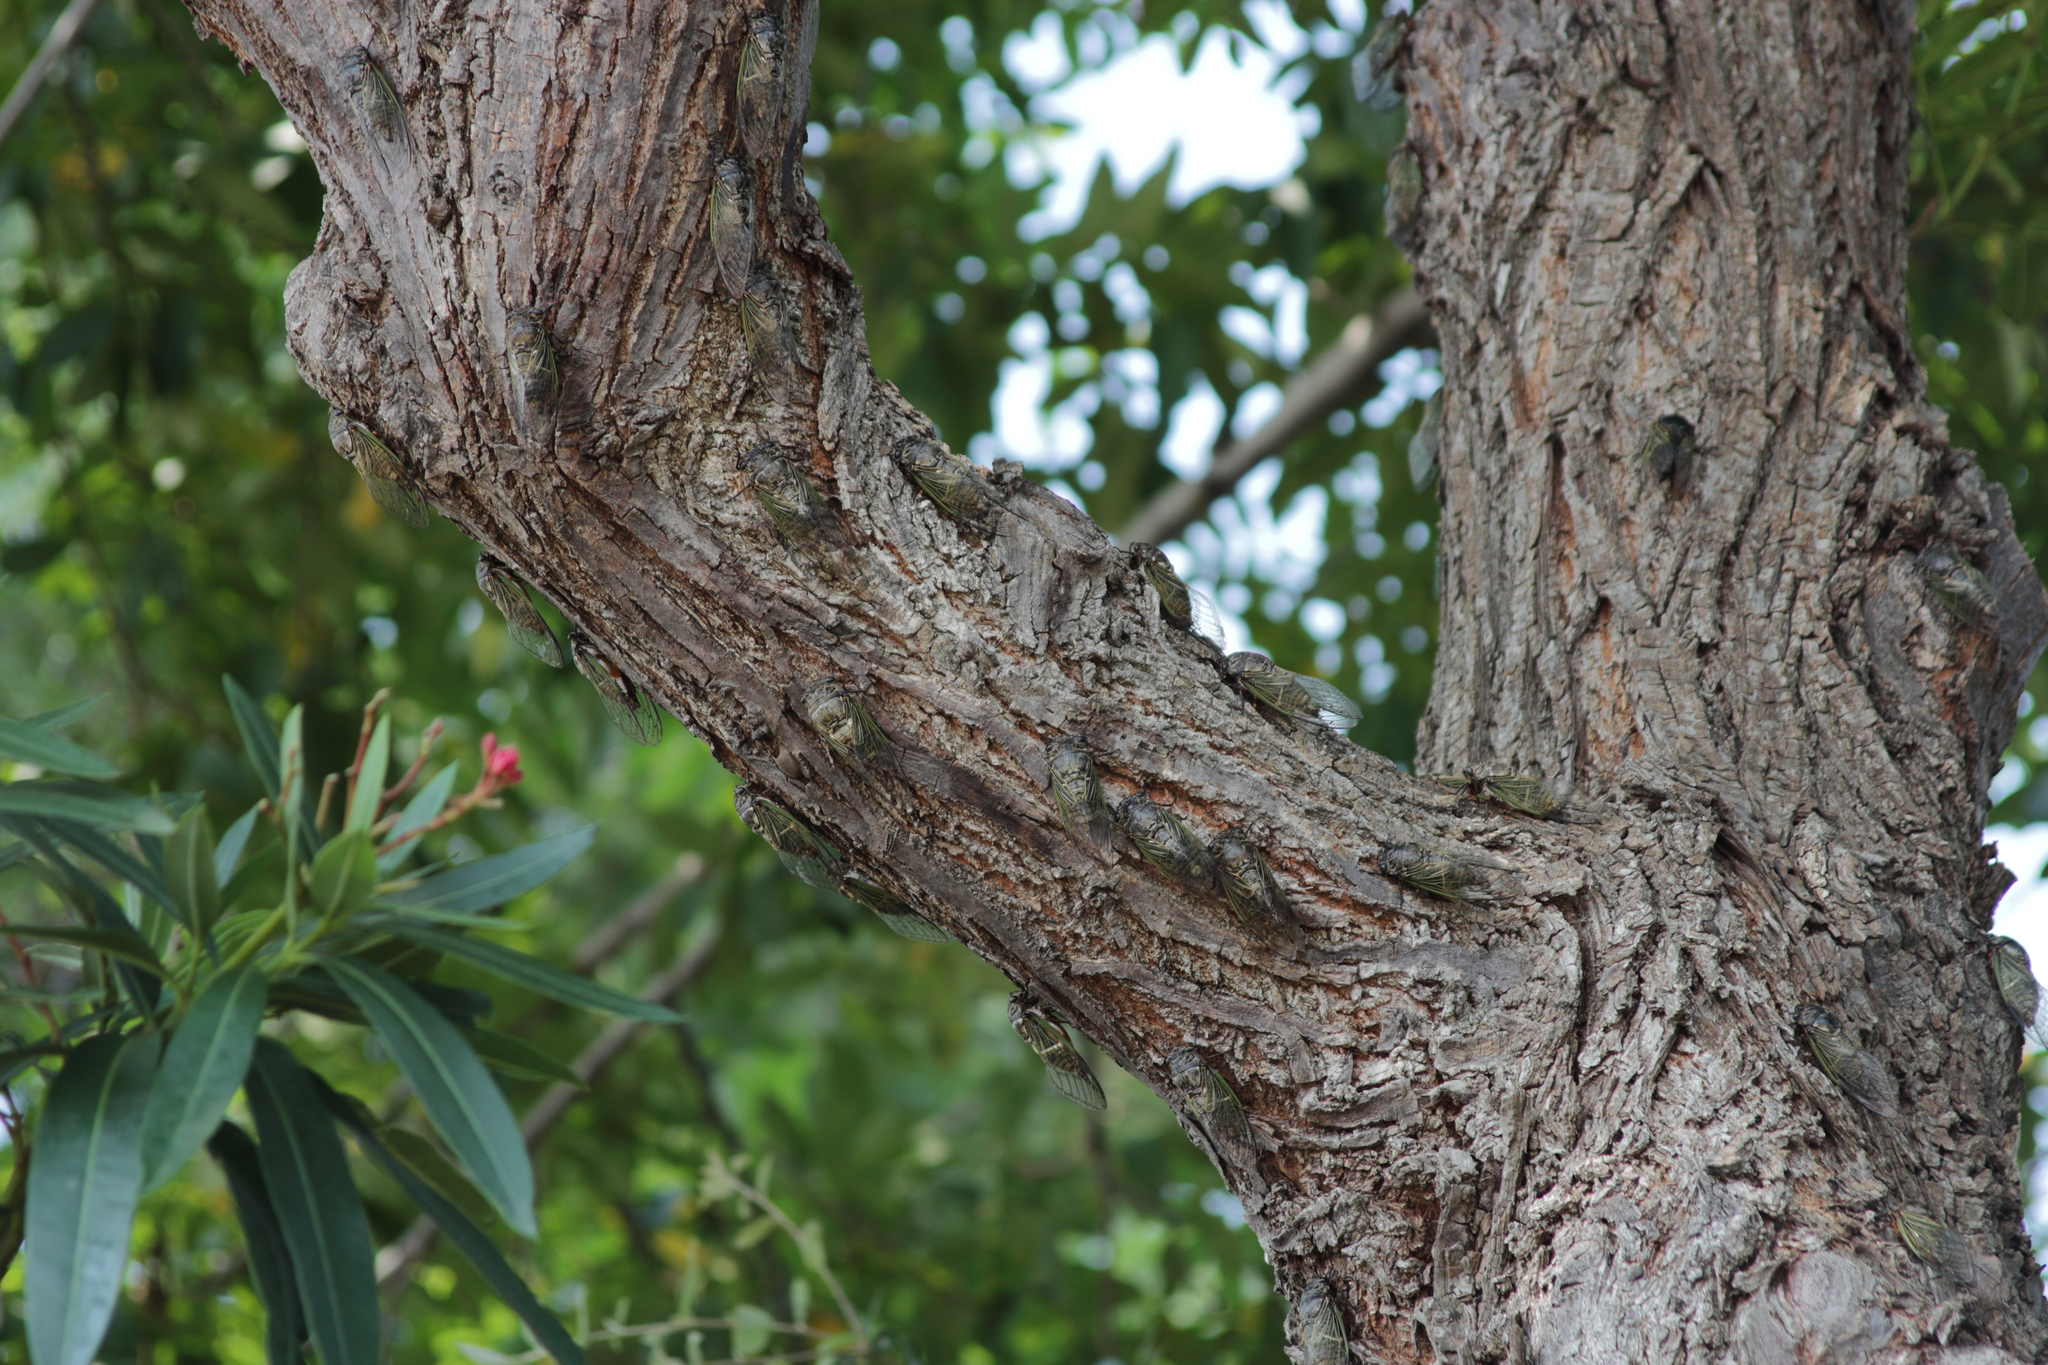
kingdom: Animalia
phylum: Arthropoda
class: Insecta
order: Hemiptera
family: Cicadidae
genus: Cryptotympana
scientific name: Cryptotympana facialis
